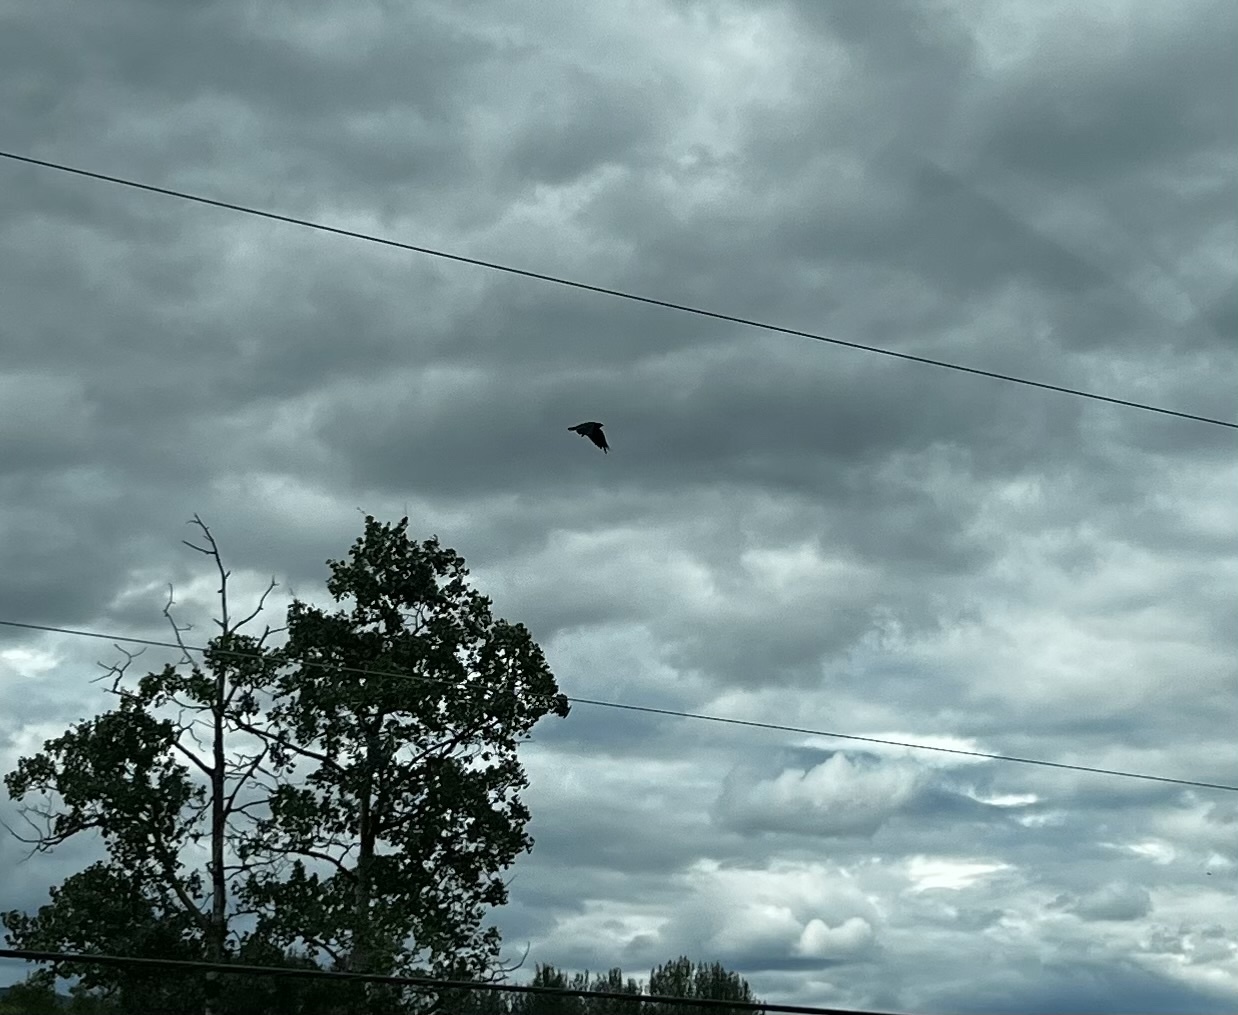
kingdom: Animalia
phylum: Chordata
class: Aves
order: Passeriformes
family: Corvidae
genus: Corvus
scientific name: Corvus corax
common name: Common raven
